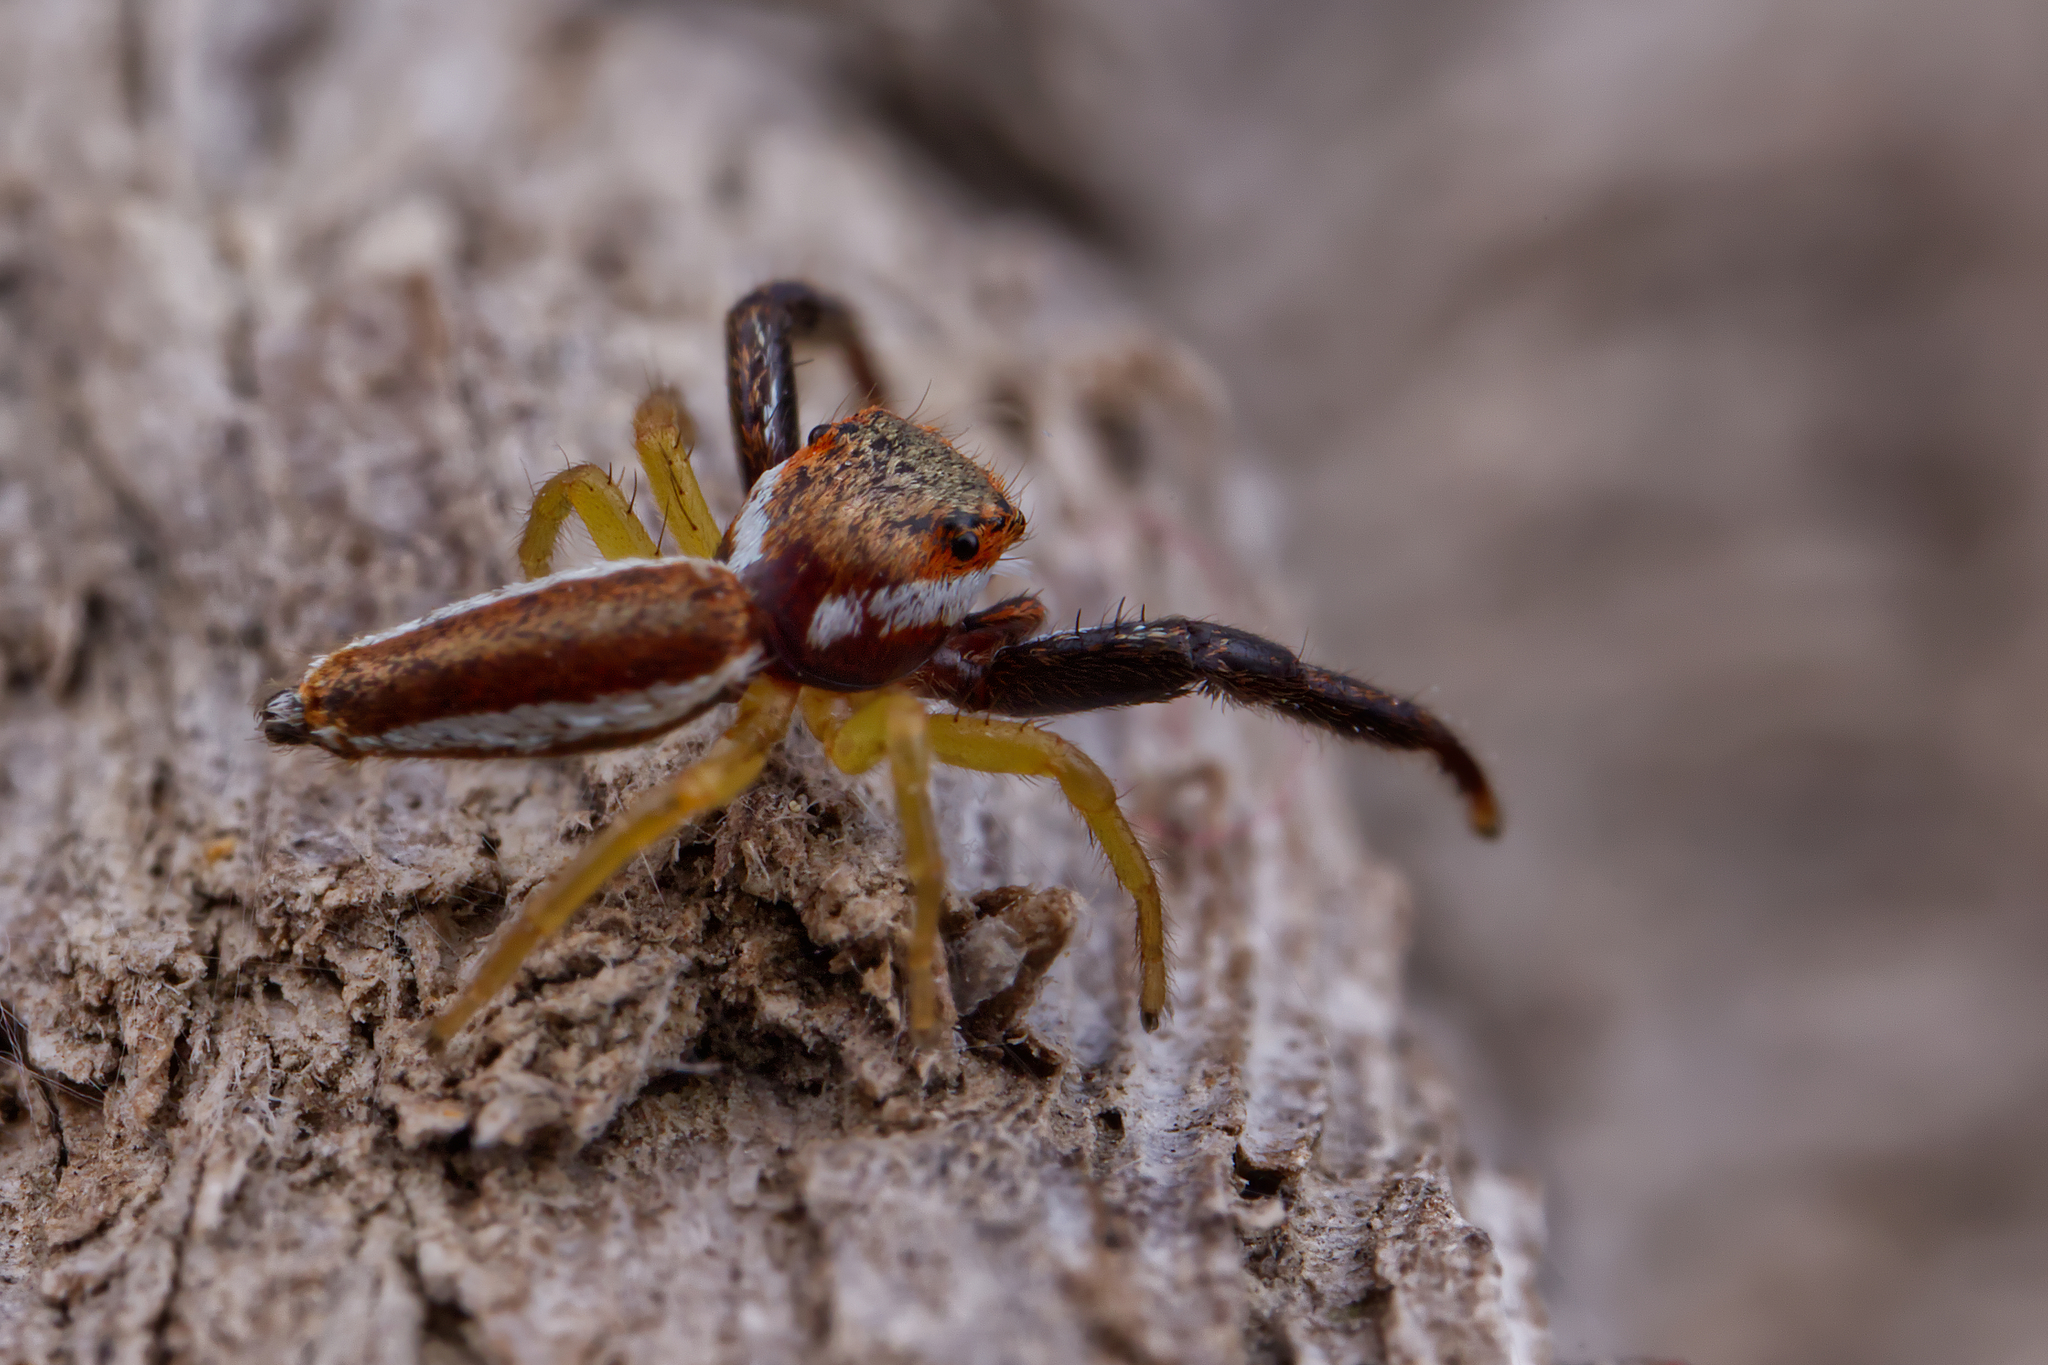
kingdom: Animalia
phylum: Arthropoda
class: Arachnida
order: Araneae
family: Salticidae
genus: Hentzia
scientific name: Hentzia palmarum
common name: Common hentz jumping spider
